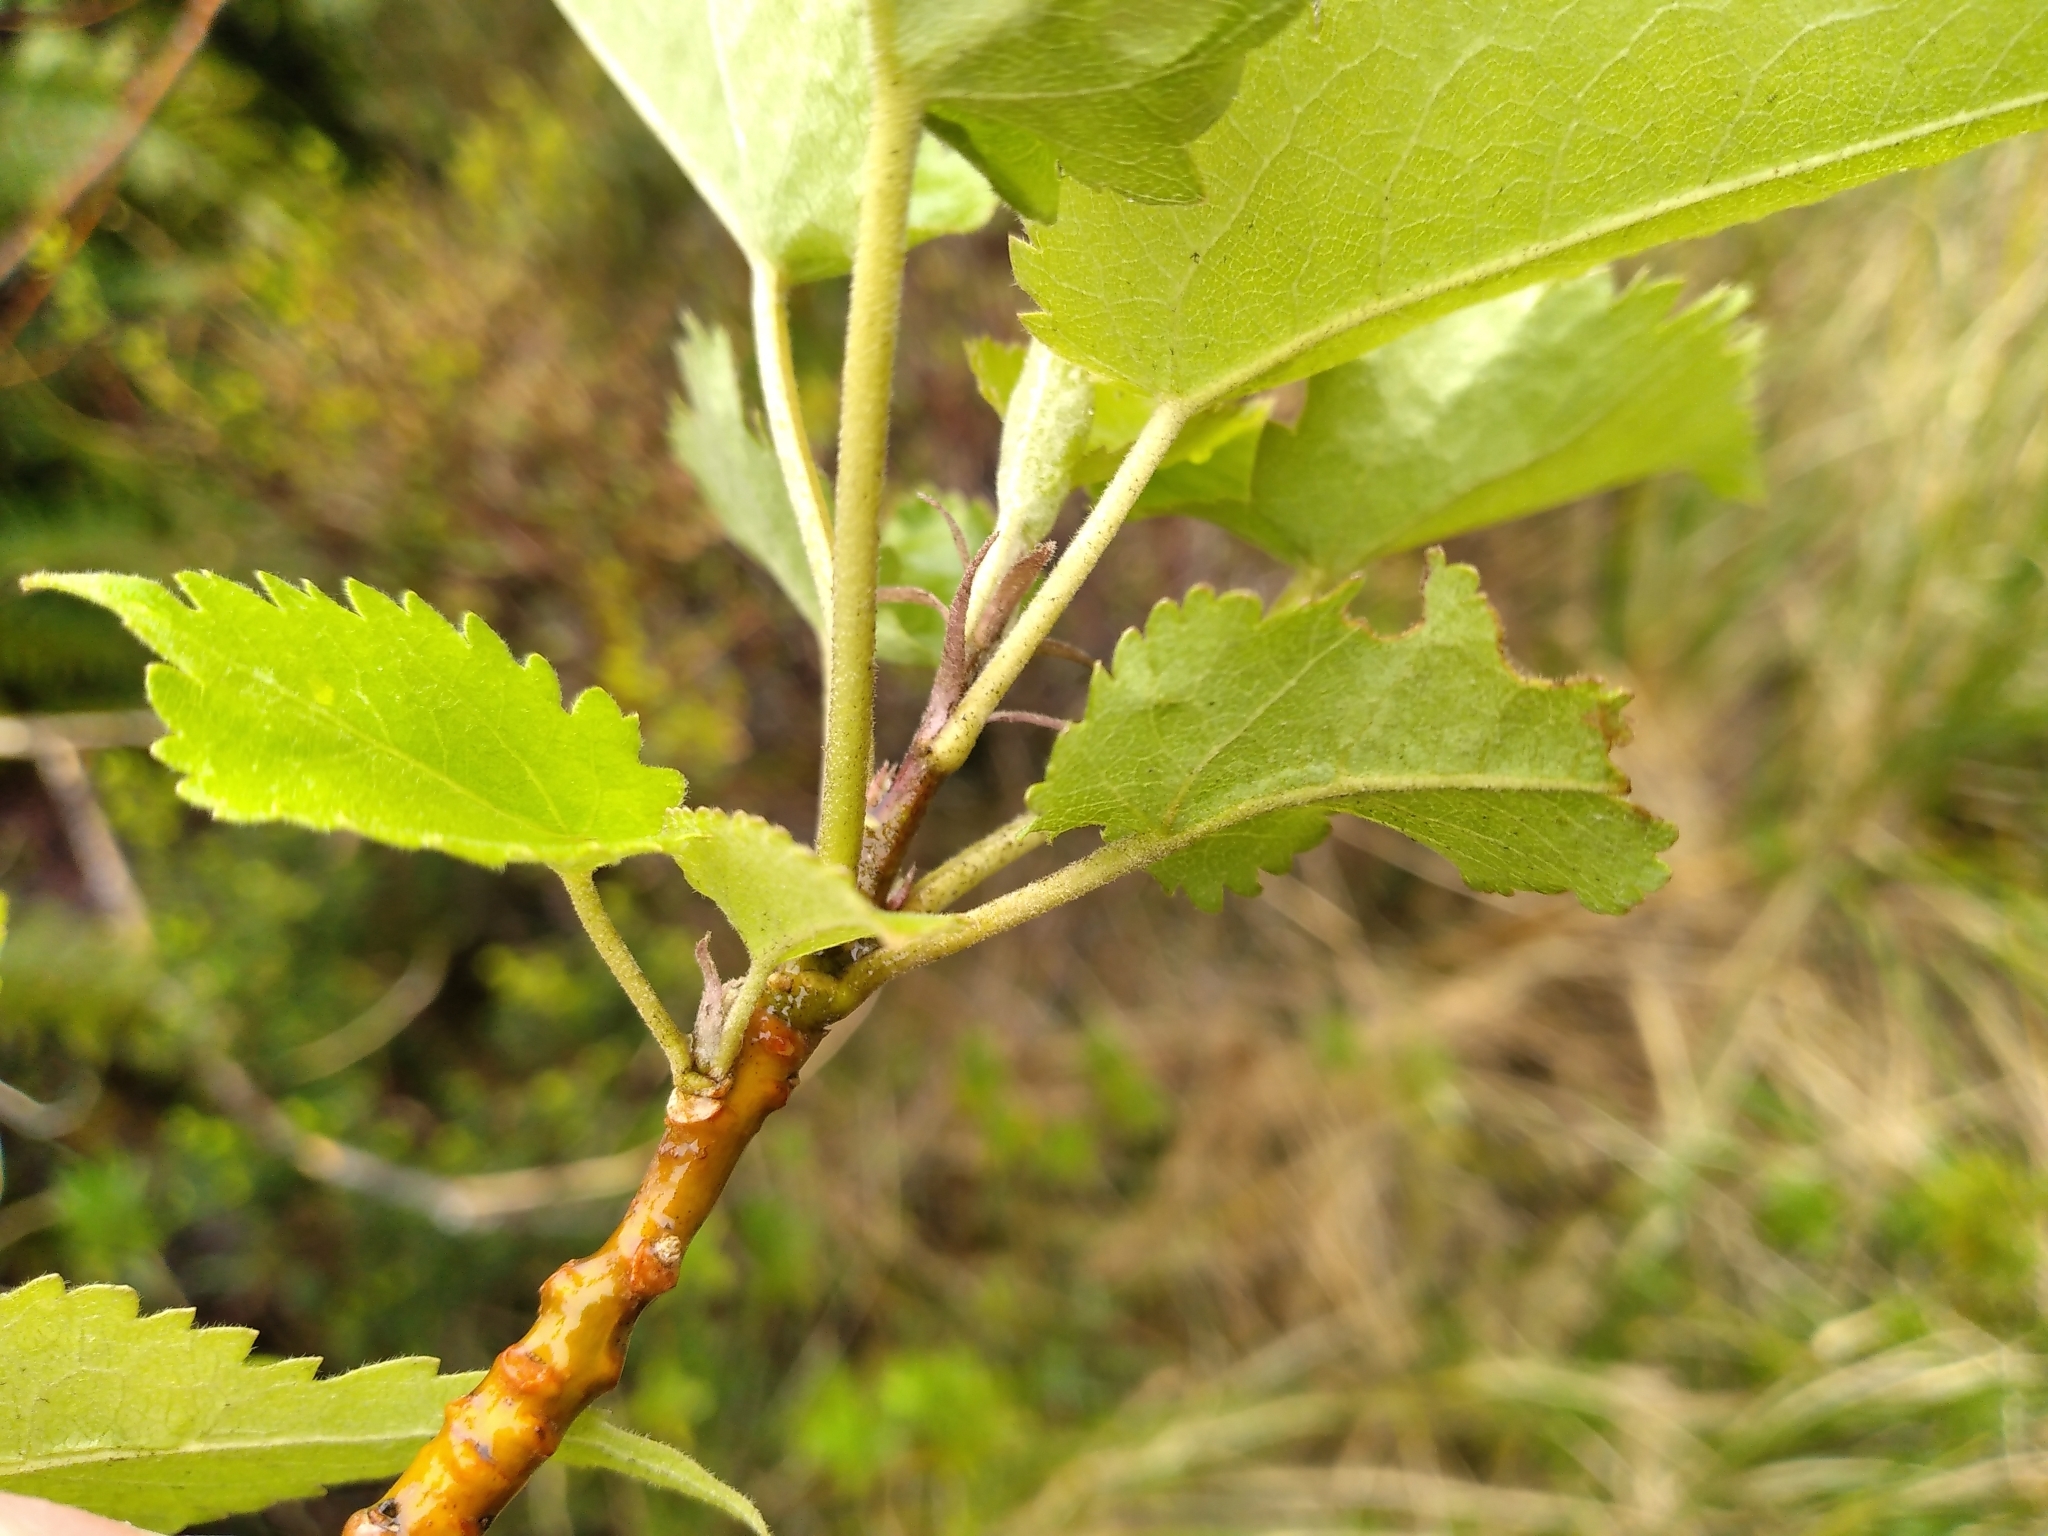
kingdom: Plantae
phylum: Tracheophyta
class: Magnoliopsida
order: Malvales
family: Malvaceae
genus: Hoheria
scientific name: Hoheria glabrata
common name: Mountain-ribbon
